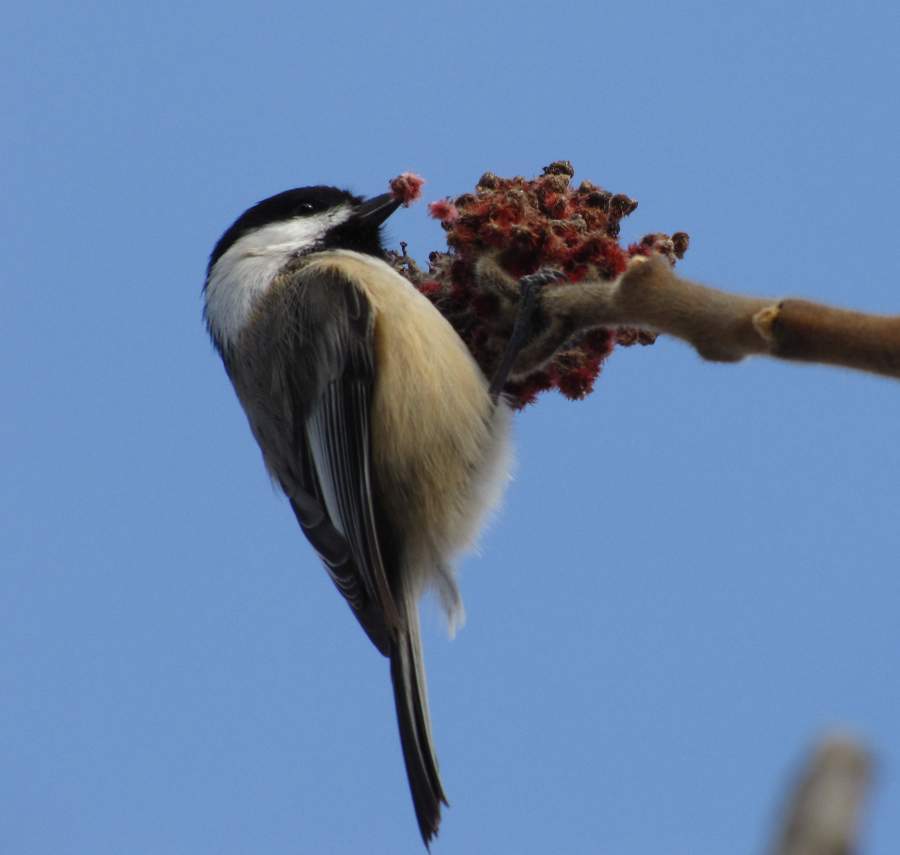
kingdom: Animalia
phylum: Chordata
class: Aves
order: Passeriformes
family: Paridae
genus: Poecile
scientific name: Poecile atricapillus
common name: Black-capped chickadee
